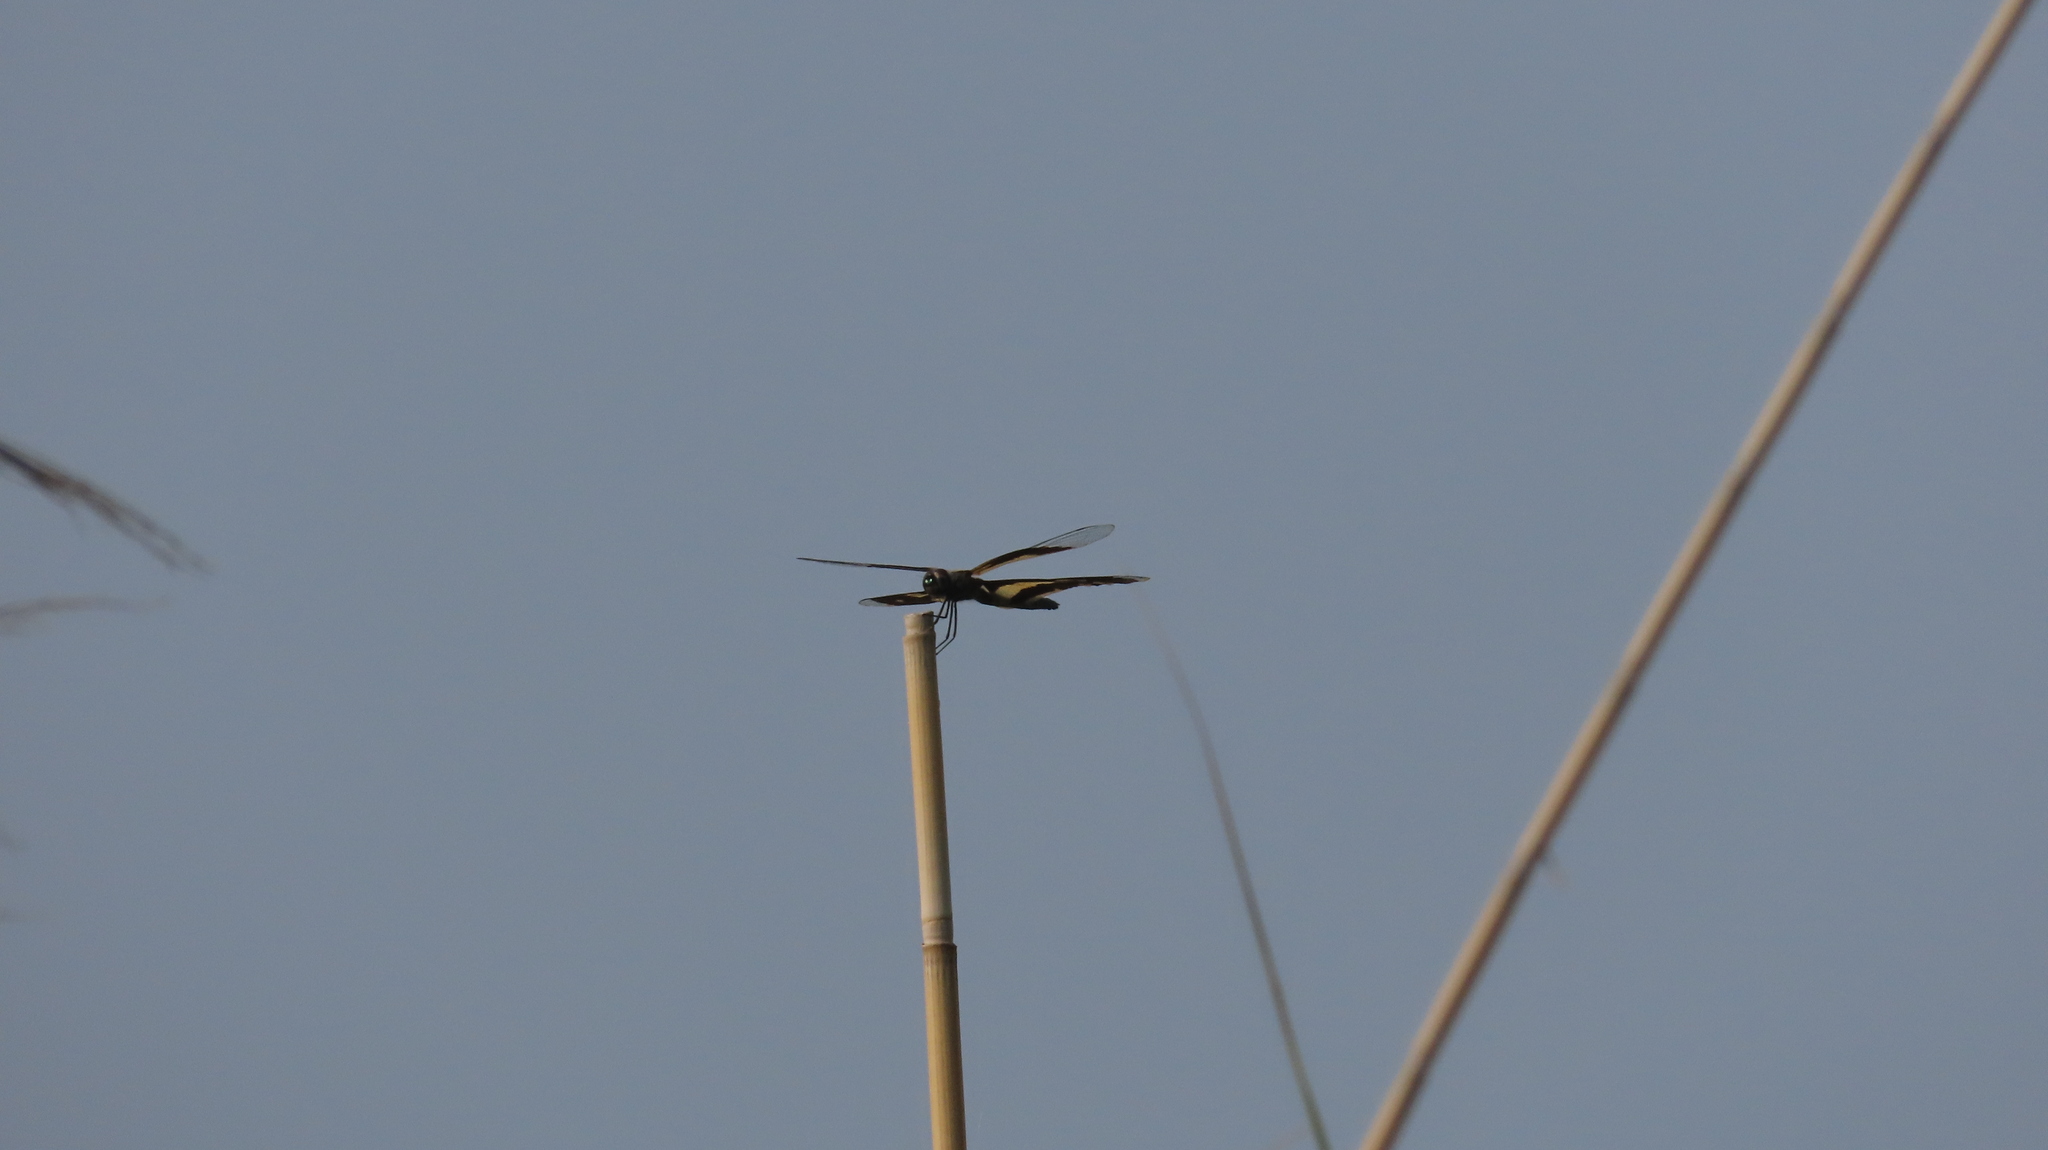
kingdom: Animalia
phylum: Arthropoda
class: Insecta
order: Odonata
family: Libellulidae
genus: Rhyothemis
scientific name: Rhyothemis variegata
